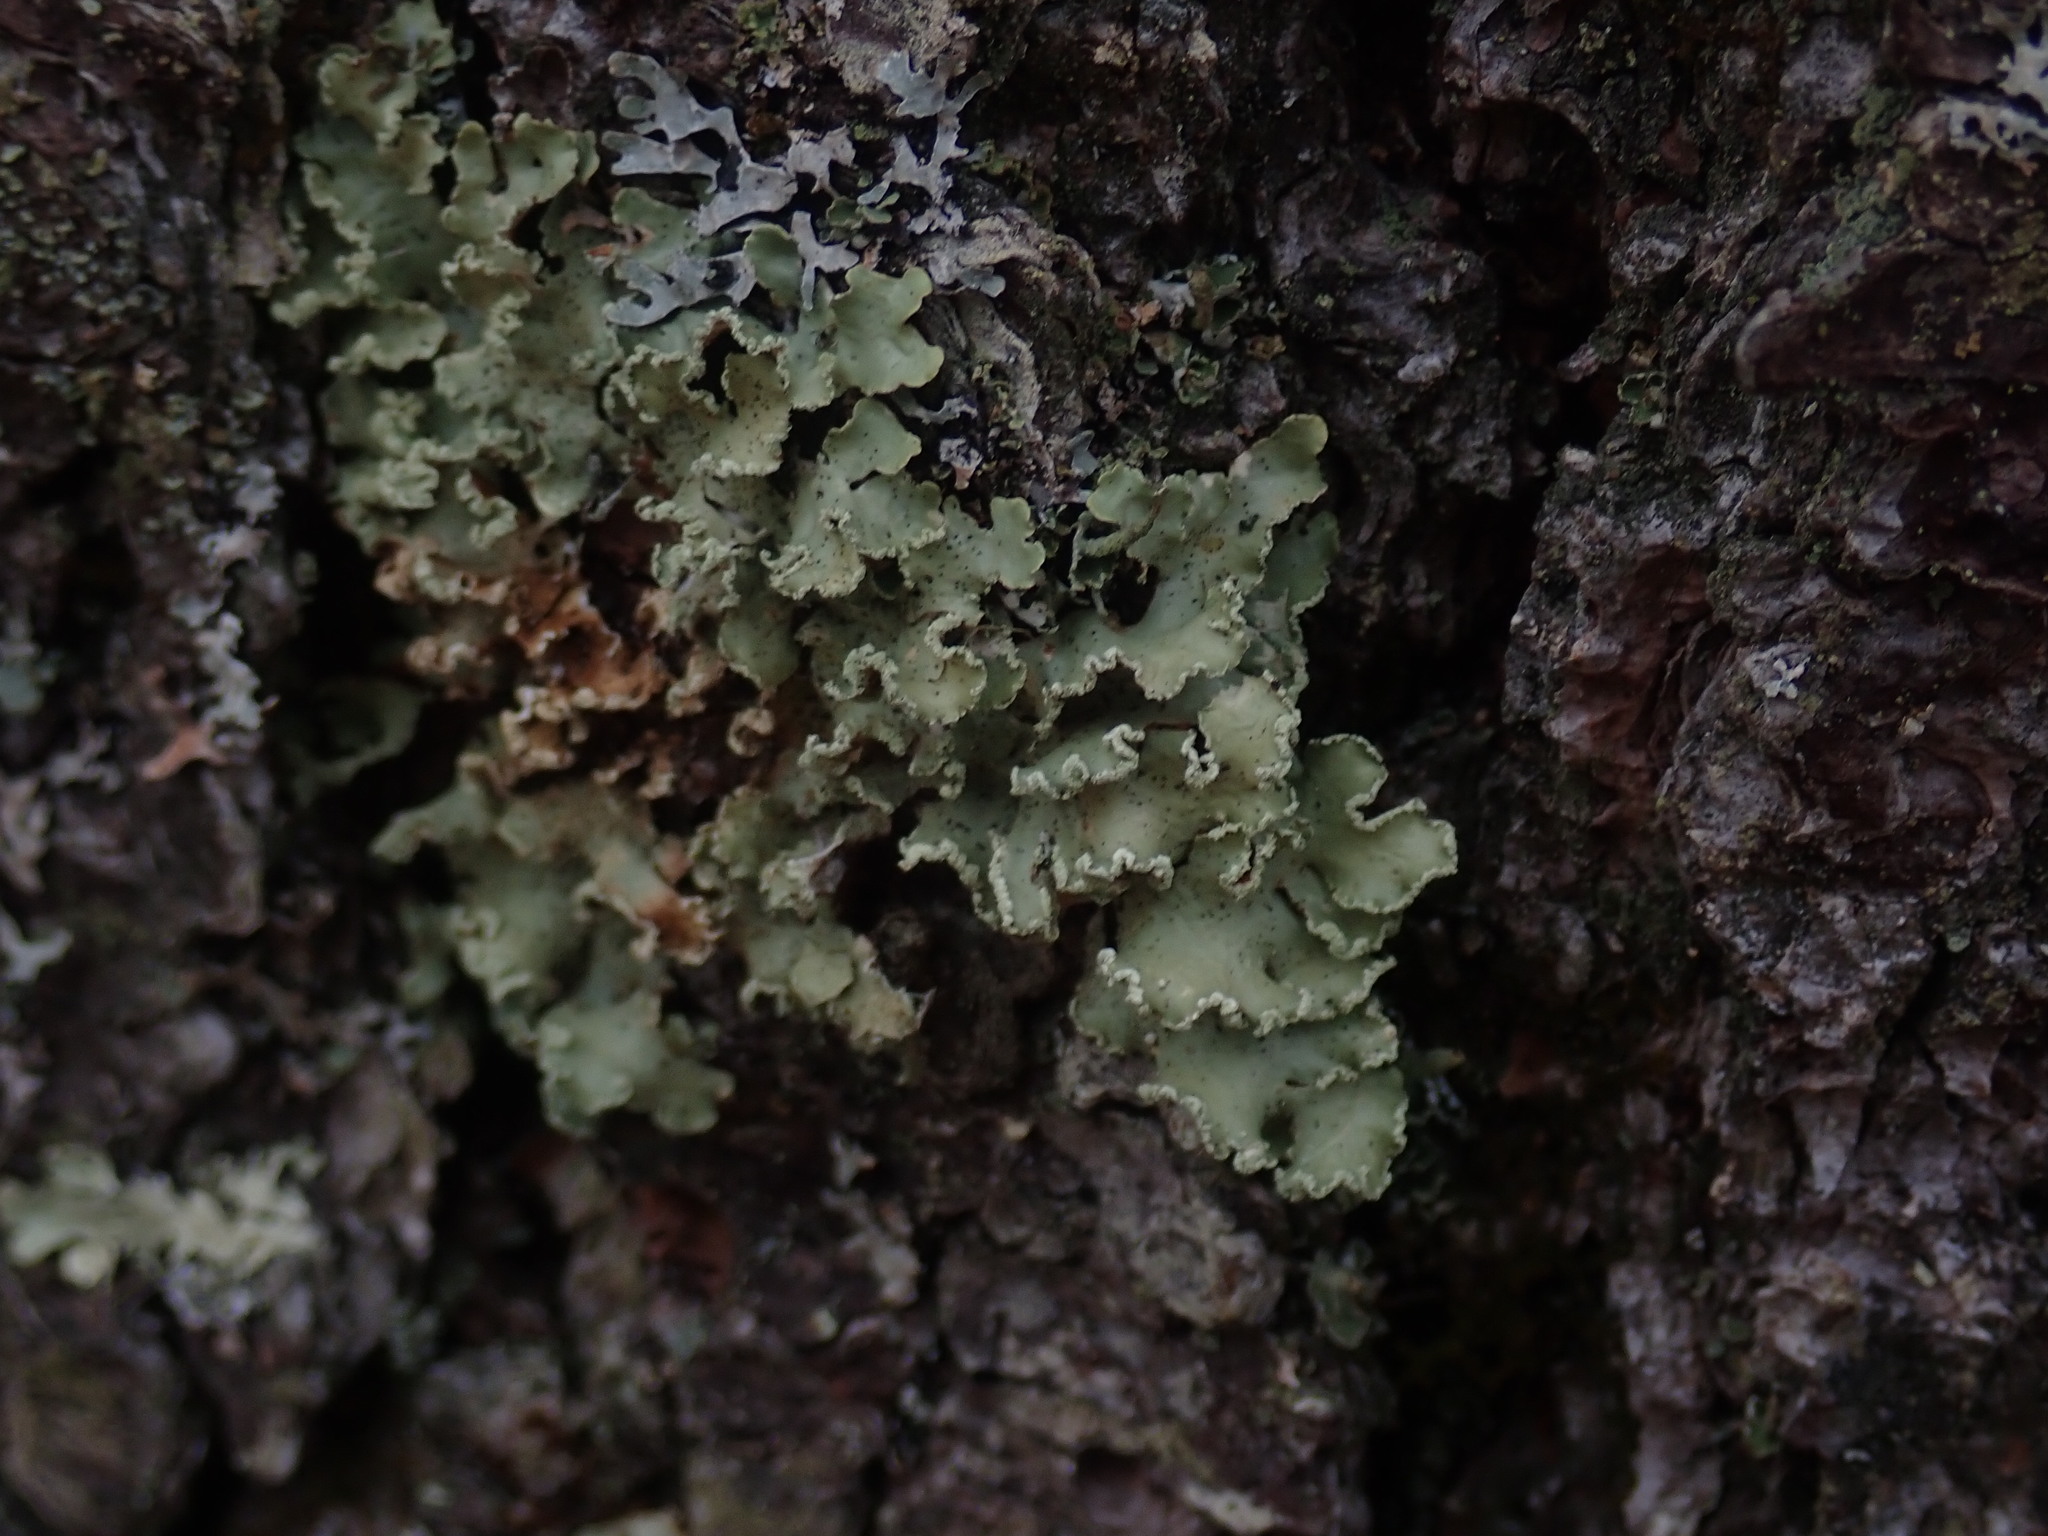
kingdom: Fungi
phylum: Ascomycota
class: Lecanoromycetes
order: Lecanorales
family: Parmeliaceae
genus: Usnocetraria
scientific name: Usnocetraria oakesiana
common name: Yellow ribbon lichen
